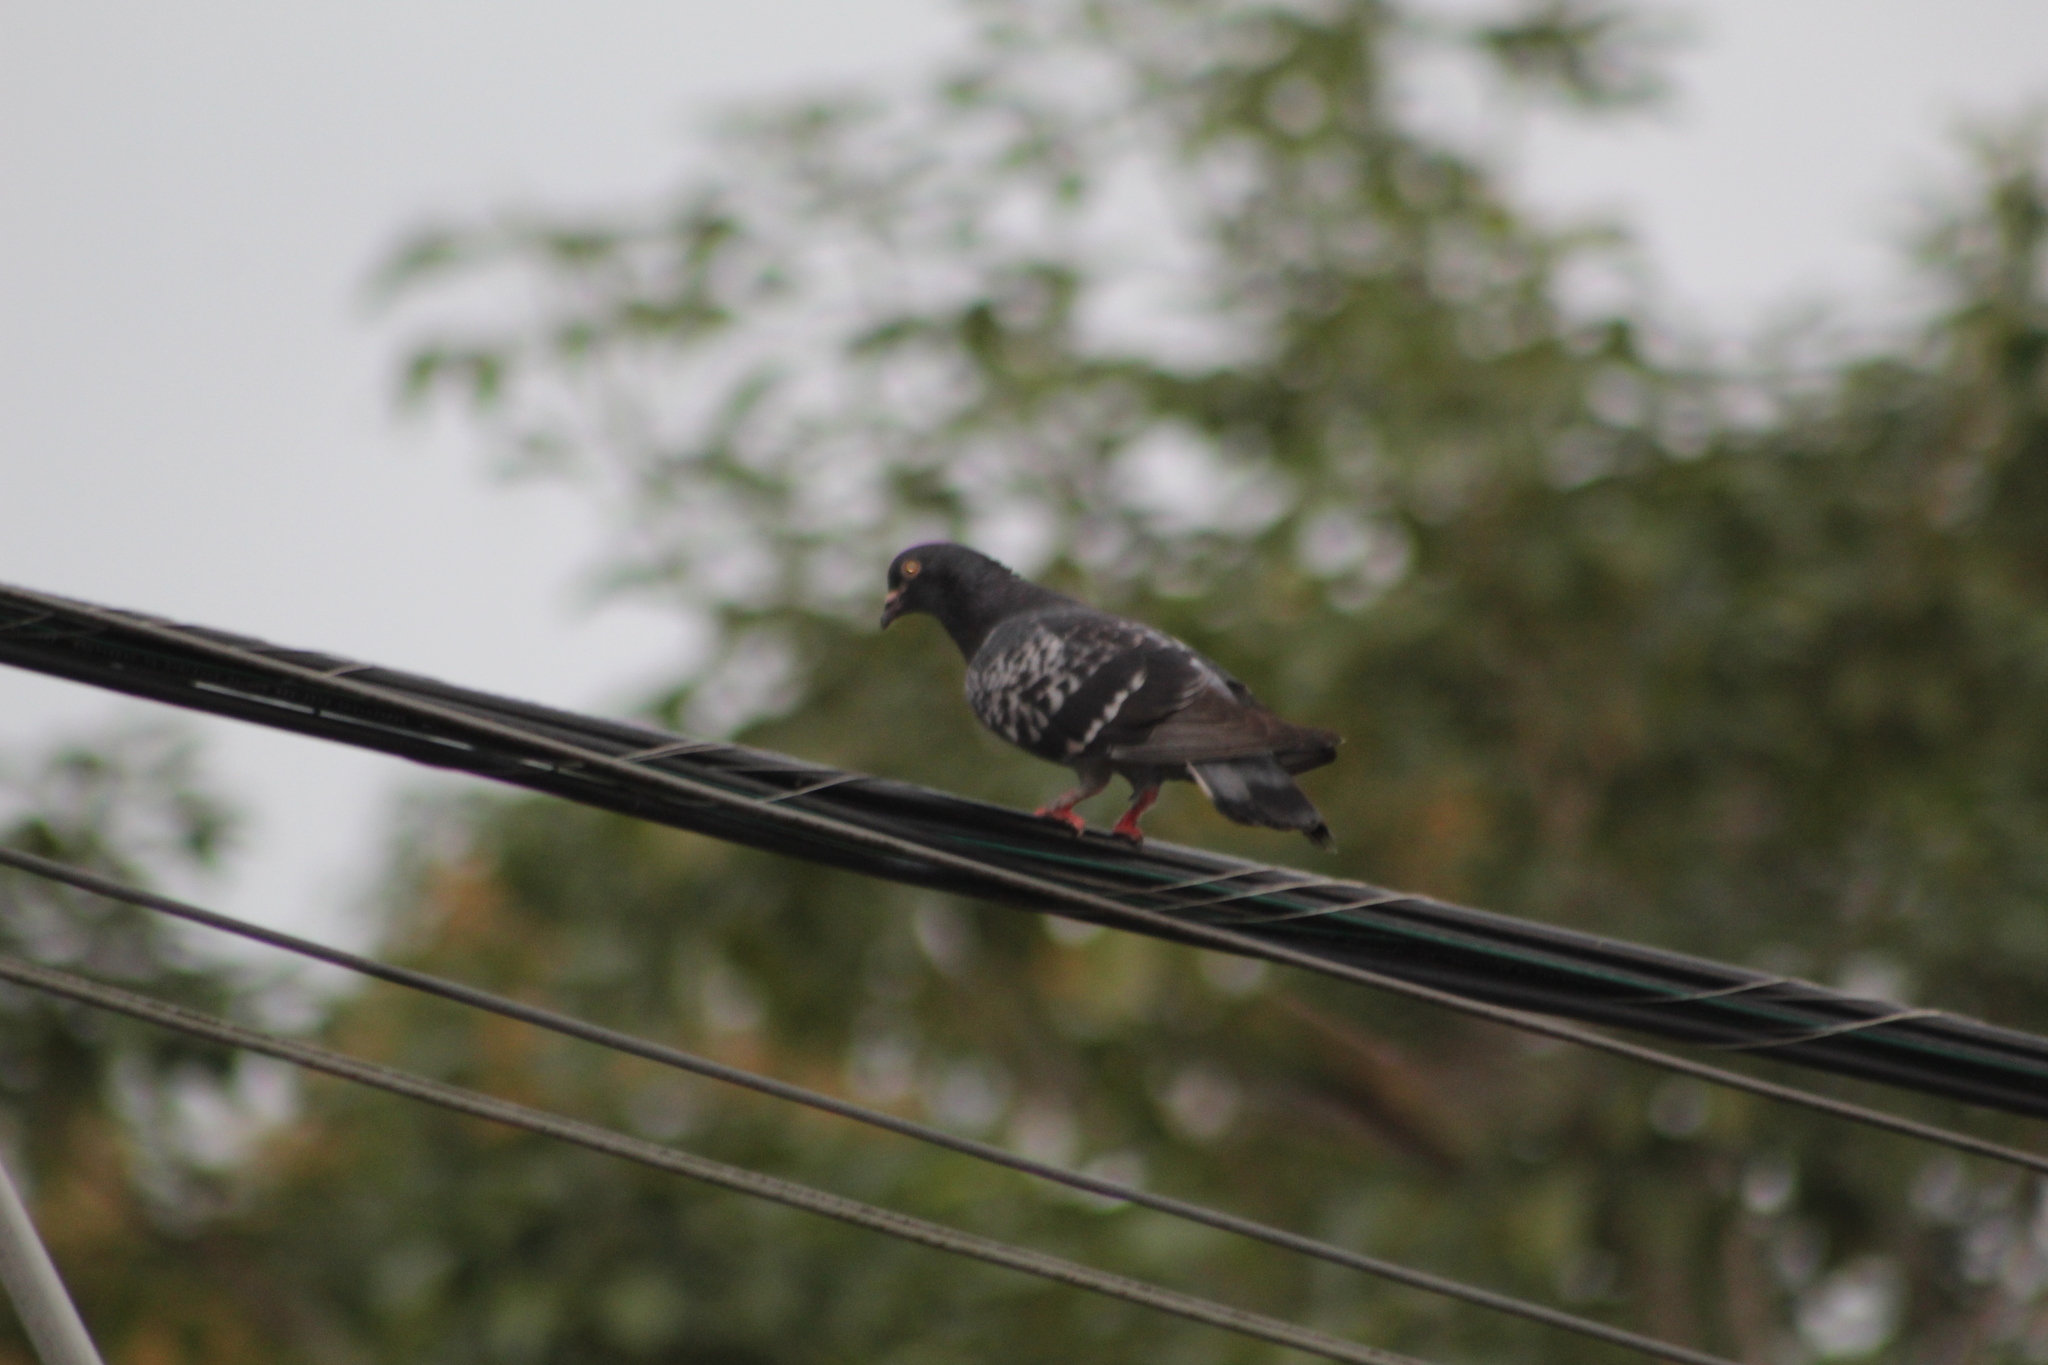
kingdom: Animalia
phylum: Chordata
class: Aves
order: Columbiformes
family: Columbidae
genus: Columba
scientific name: Columba livia
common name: Rock pigeon
